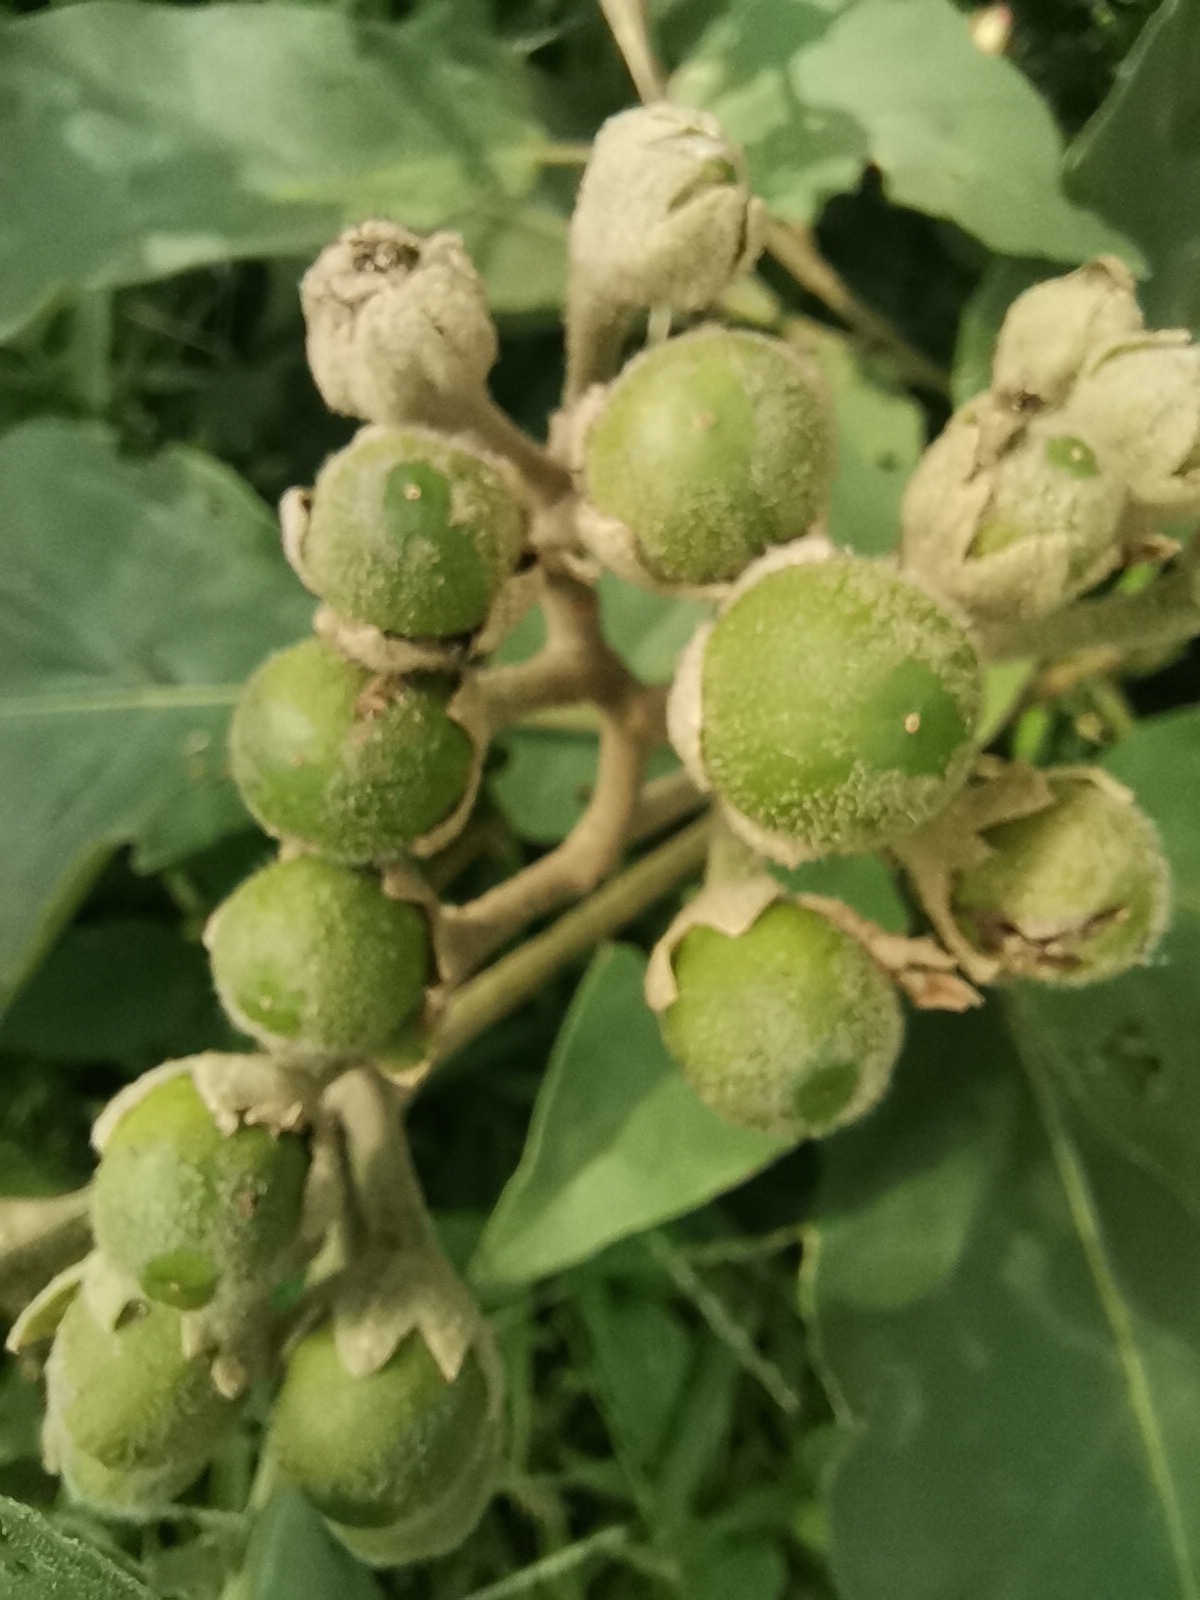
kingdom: Plantae
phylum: Tracheophyta
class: Magnoliopsida
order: Solanales
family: Solanaceae
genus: Solanum
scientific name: Solanum erianthum
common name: Tobacco-tree
